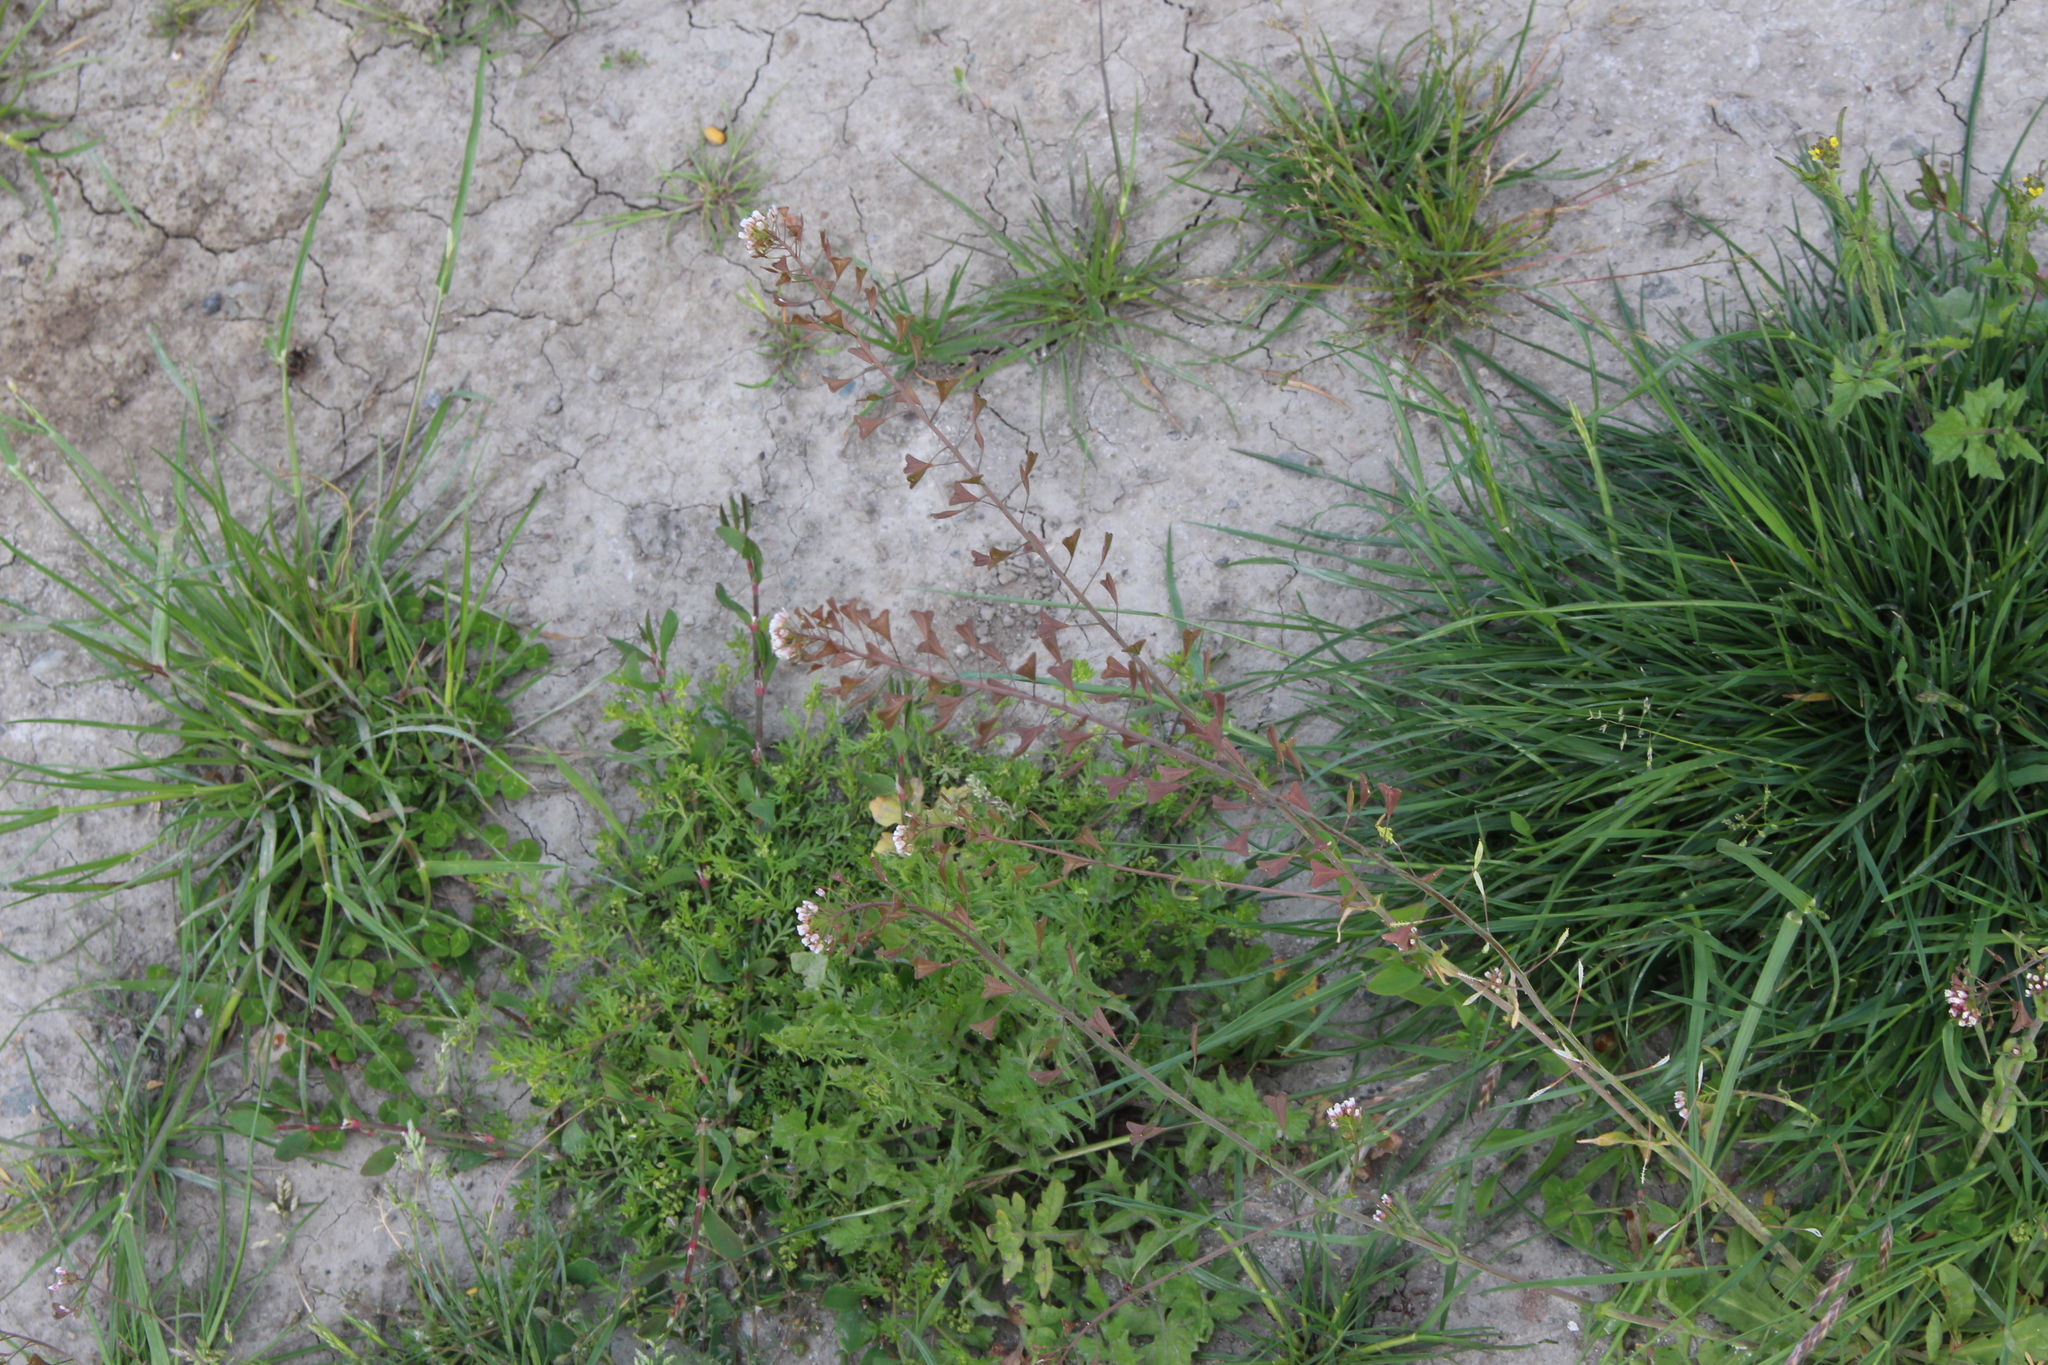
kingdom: Plantae
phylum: Tracheophyta
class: Magnoliopsida
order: Brassicales
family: Brassicaceae
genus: Capsella
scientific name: Capsella bursa-pastoris
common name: Shepherd's purse
